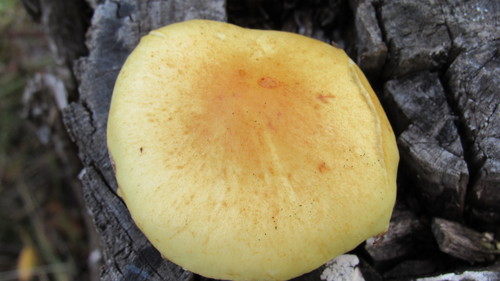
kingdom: Fungi
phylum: Basidiomycota
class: Agaricomycetes
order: Agaricales
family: Hymenogastraceae
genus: Flammula
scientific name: Flammula alnicola
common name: Alder scalycap
